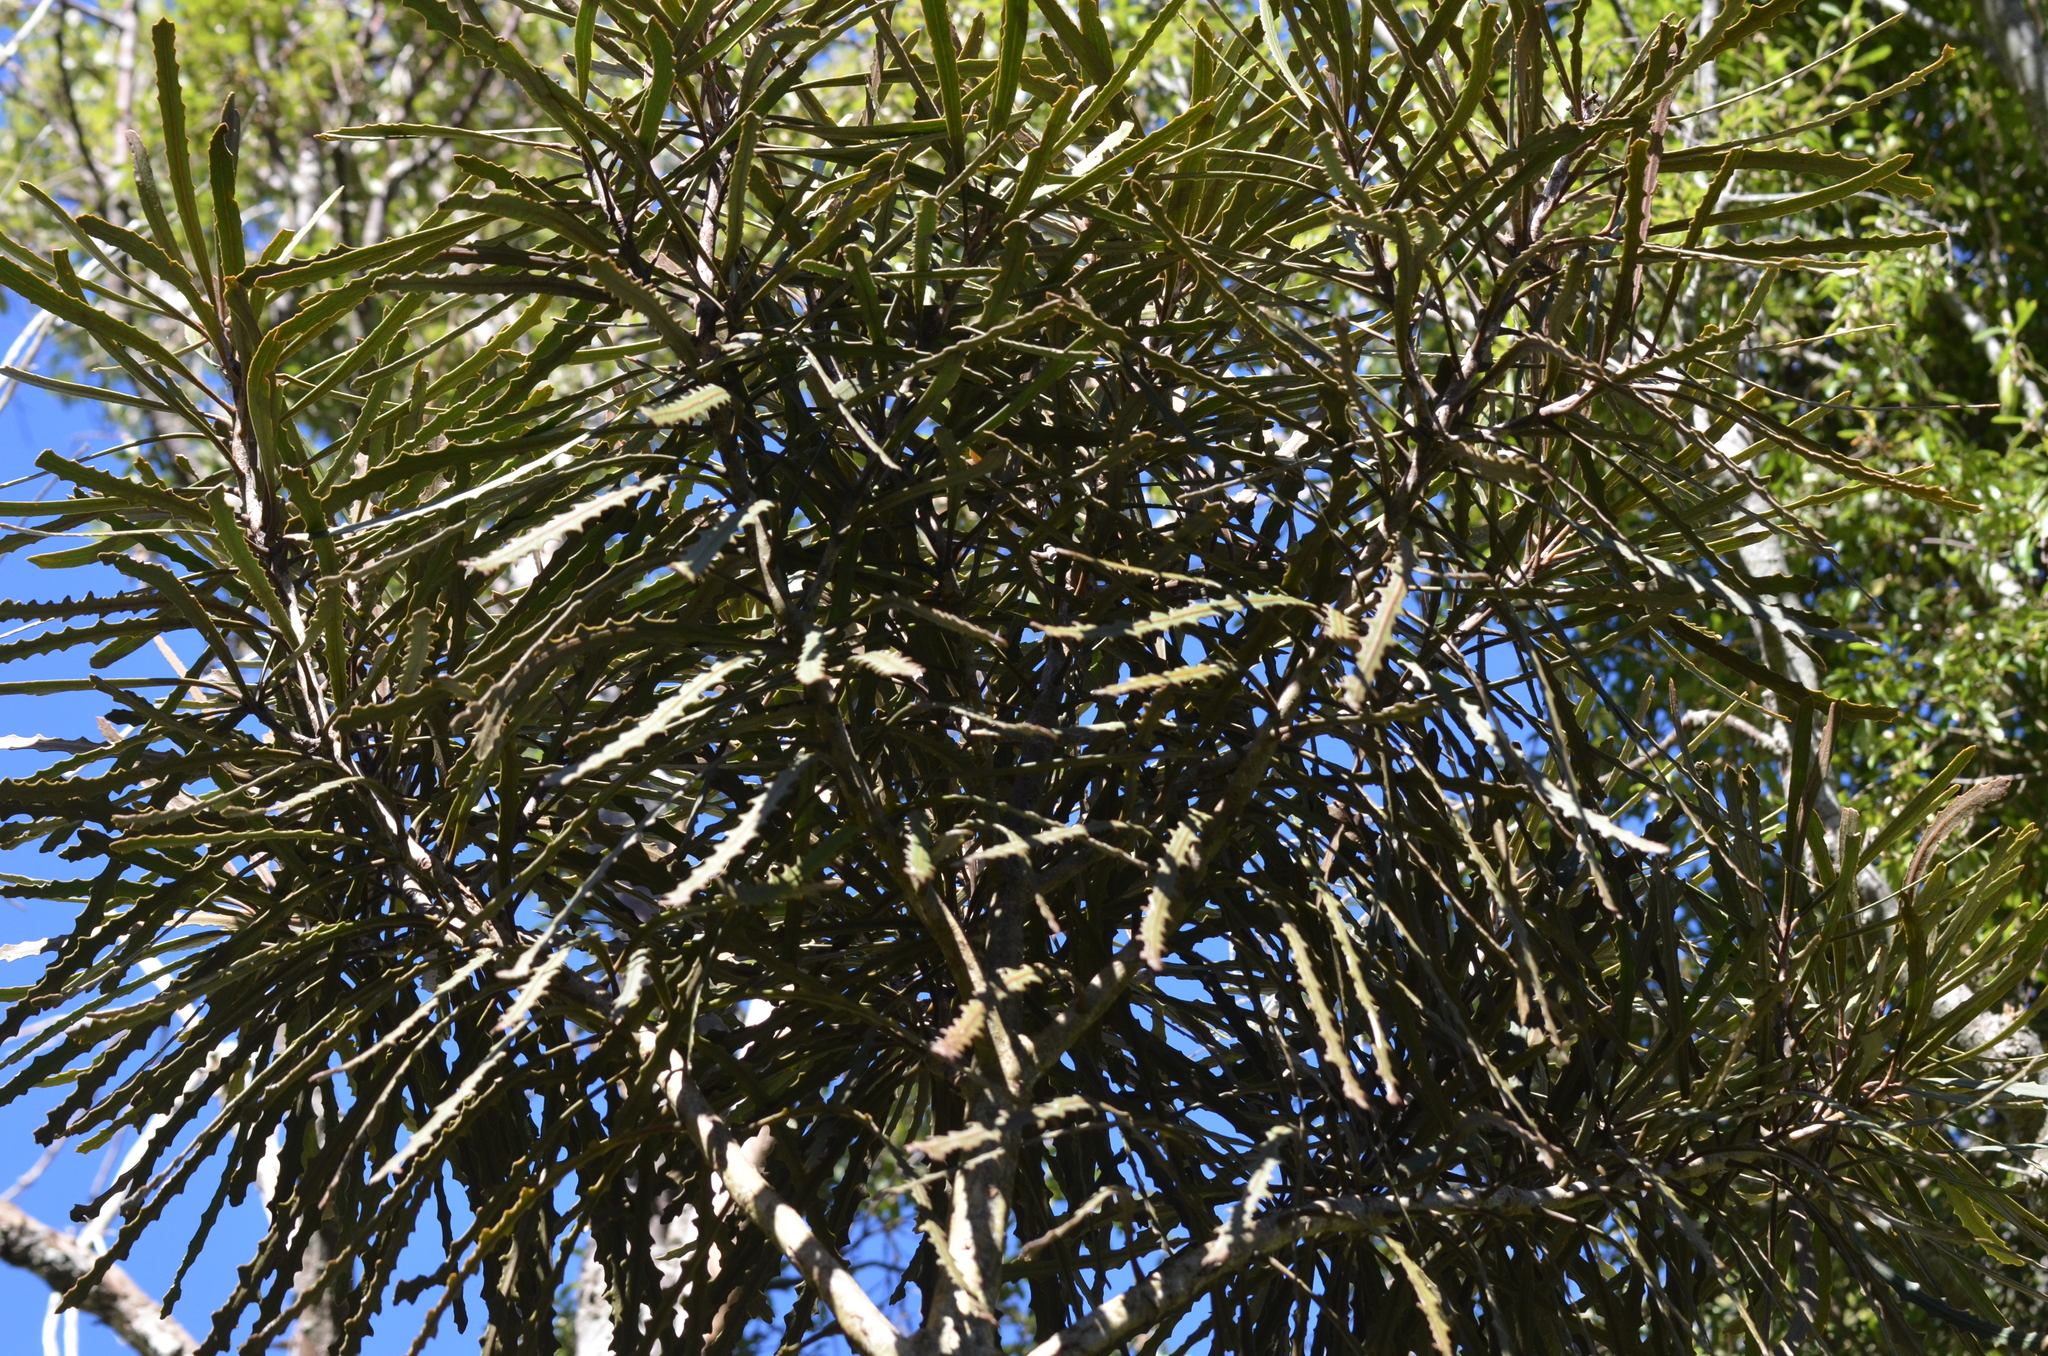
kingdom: Plantae
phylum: Tracheophyta
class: Magnoliopsida
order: Apiales
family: Araliaceae
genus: Pseudopanax
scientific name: Pseudopanax ferox
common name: Fierce lancewood
